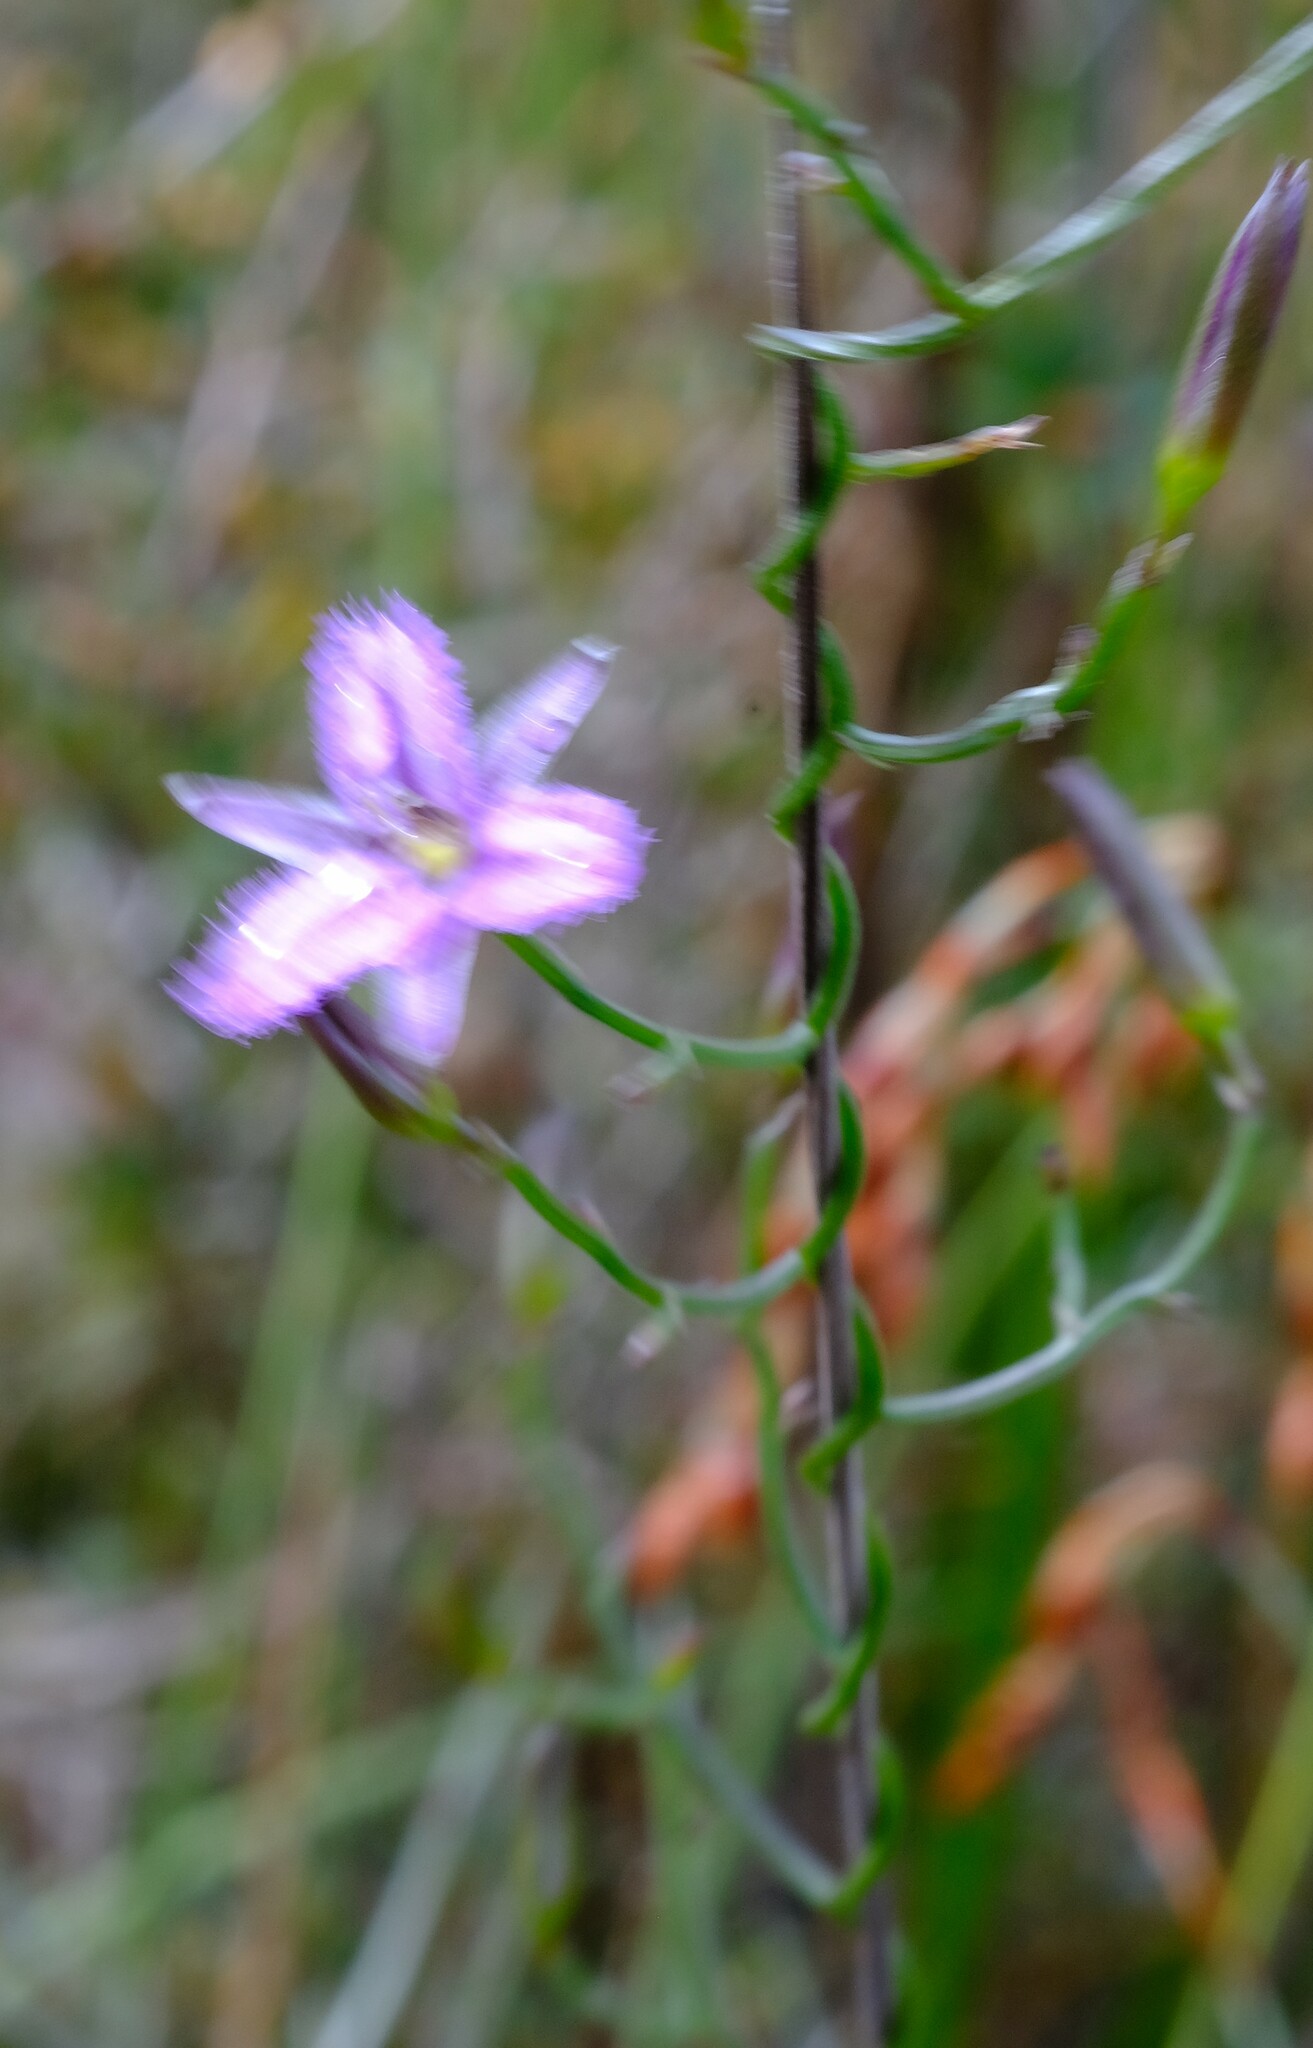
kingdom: Plantae
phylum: Tracheophyta
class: Liliopsida
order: Asparagales
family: Asparagaceae
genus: Thysanotus
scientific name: Thysanotus patersonii
